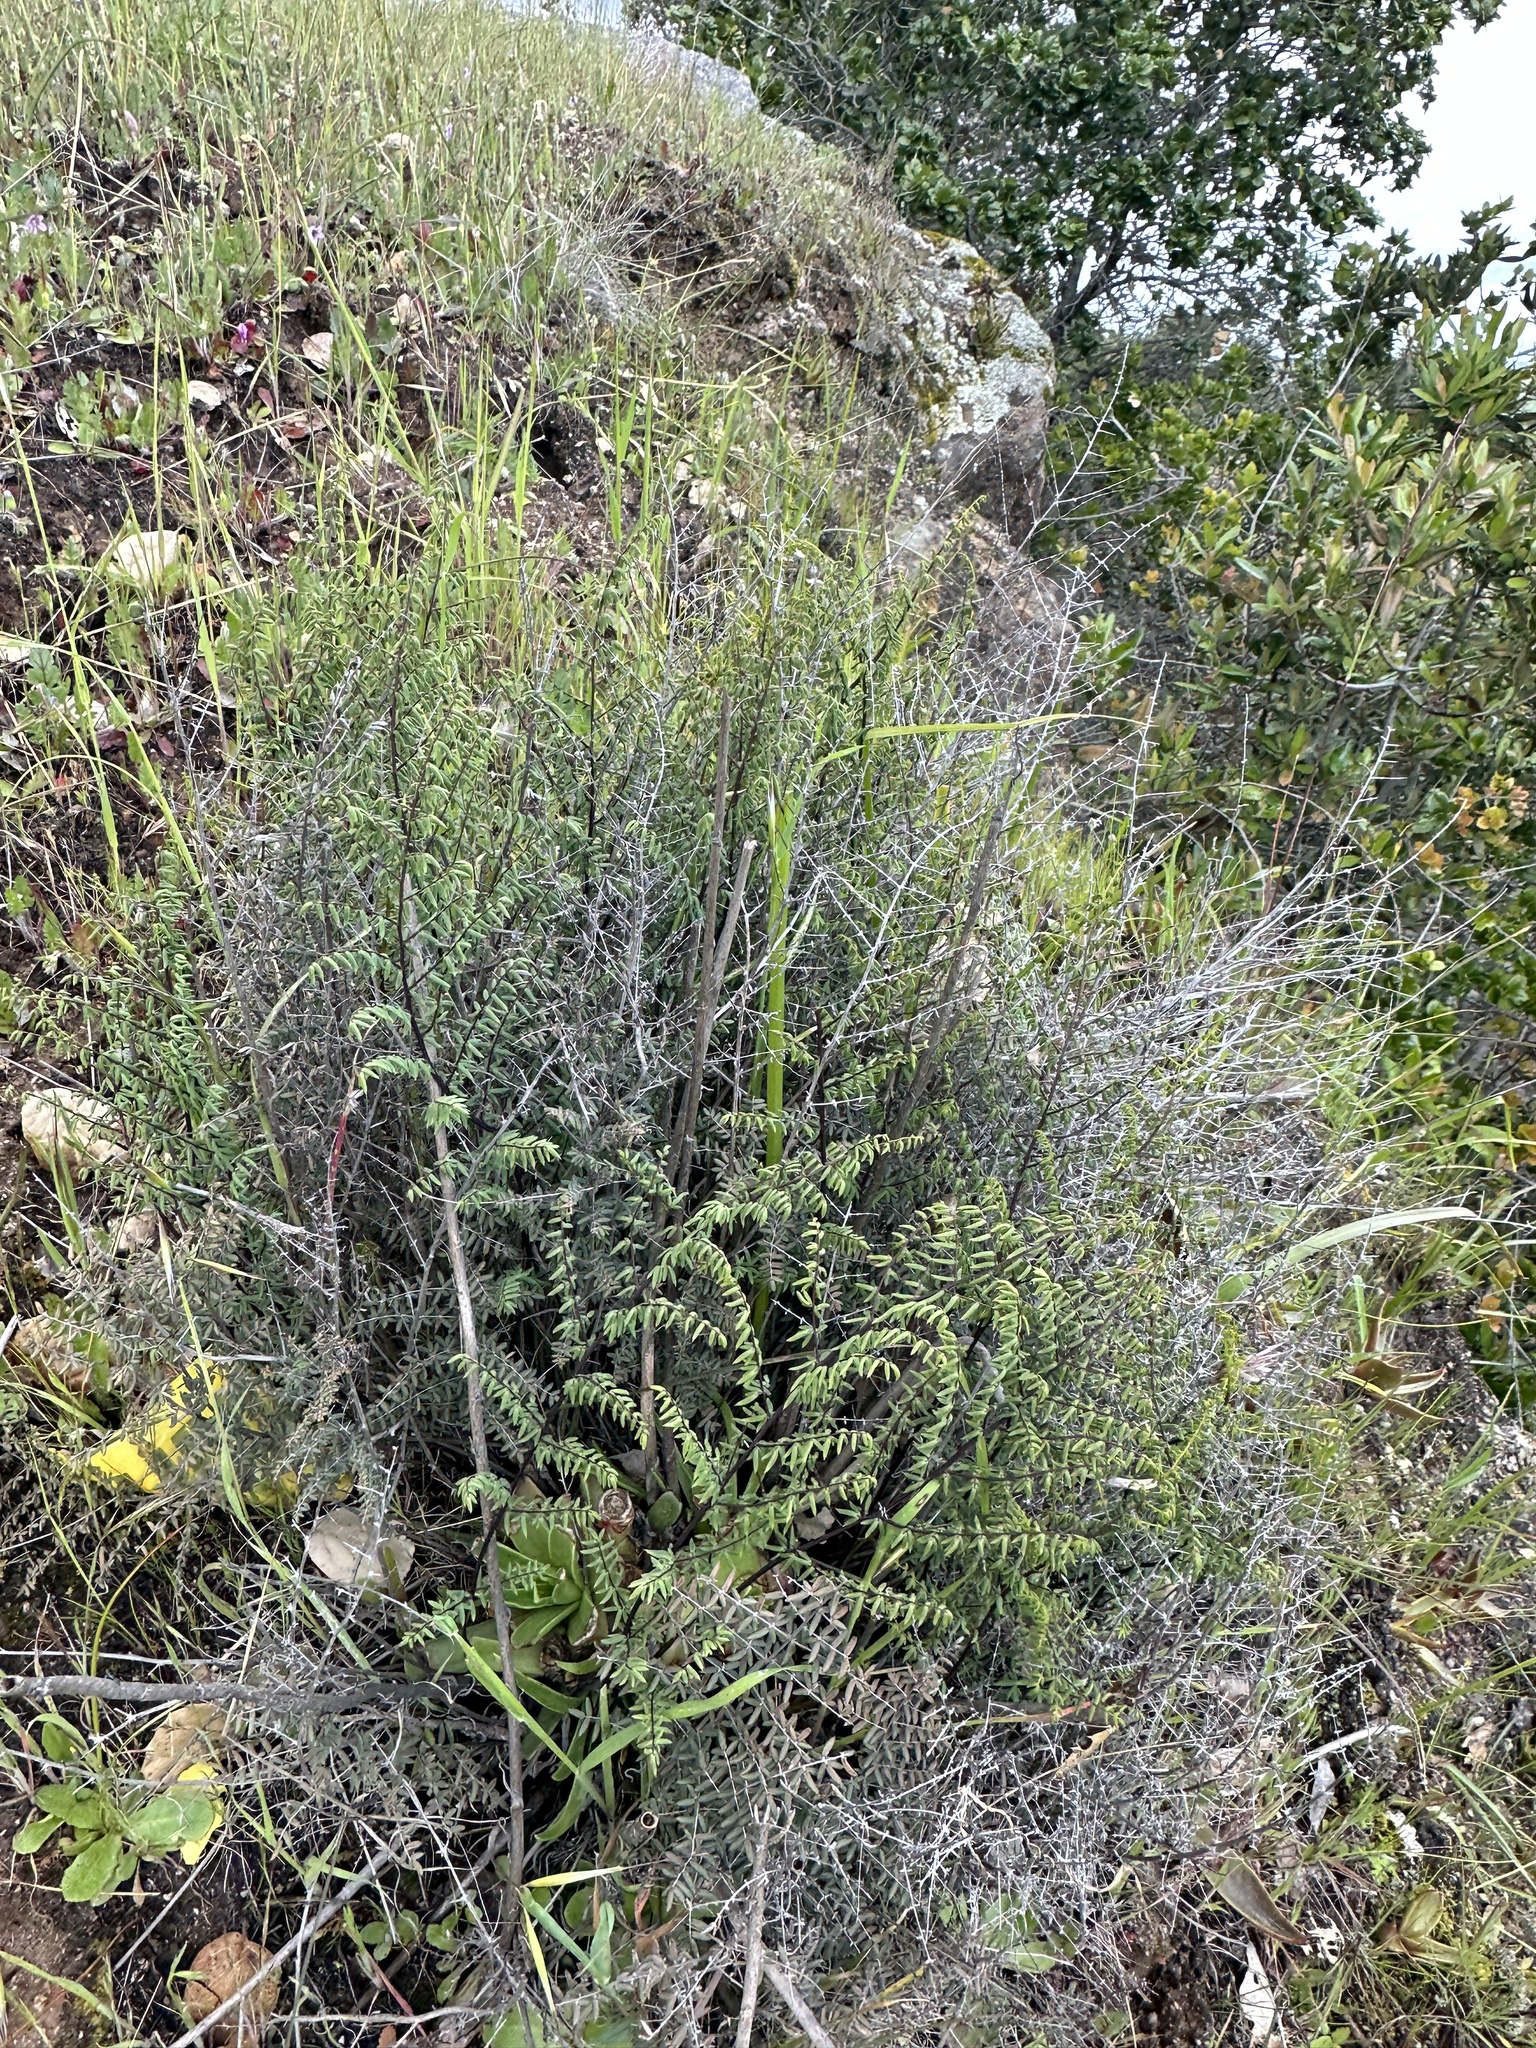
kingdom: Plantae
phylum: Tracheophyta
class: Polypodiopsida
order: Polypodiales
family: Pteridaceae
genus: Pellaea
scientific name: Pellaea mucronata
